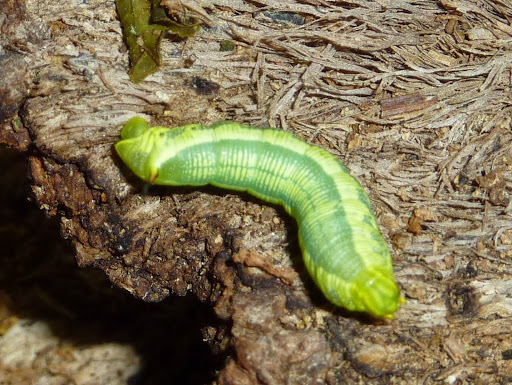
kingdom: Animalia
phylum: Arthropoda
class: Insecta
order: Lepidoptera
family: Sphingidae
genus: Deidamia
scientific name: Deidamia inscriptum
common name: Lettered sphinx
